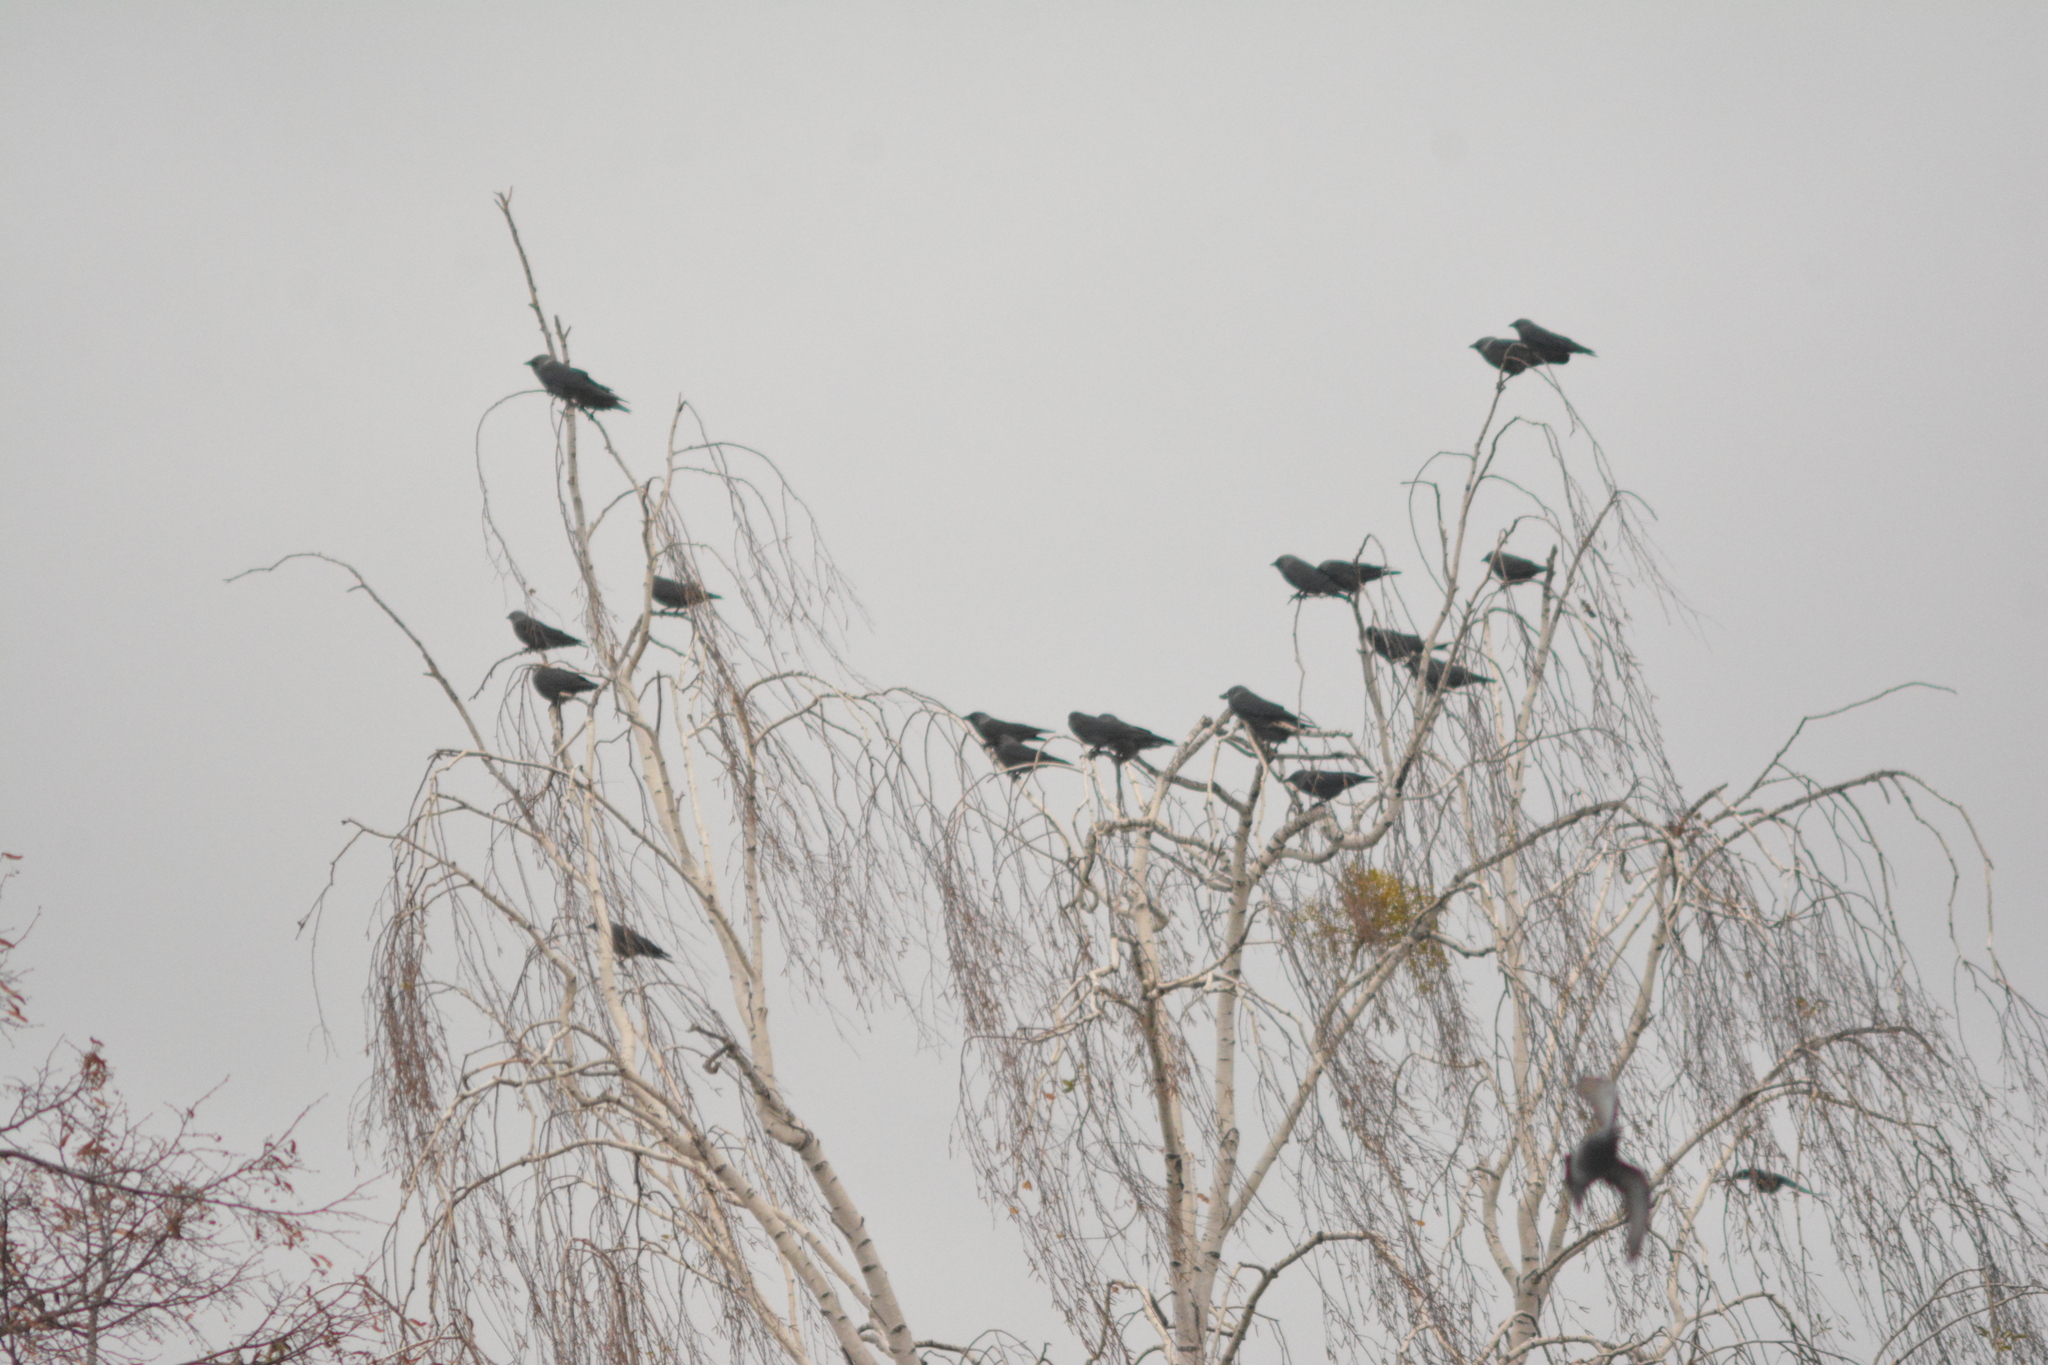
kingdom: Animalia
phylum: Chordata
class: Aves
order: Passeriformes
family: Corvidae
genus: Coloeus
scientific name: Coloeus monedula
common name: Western jackdaw
